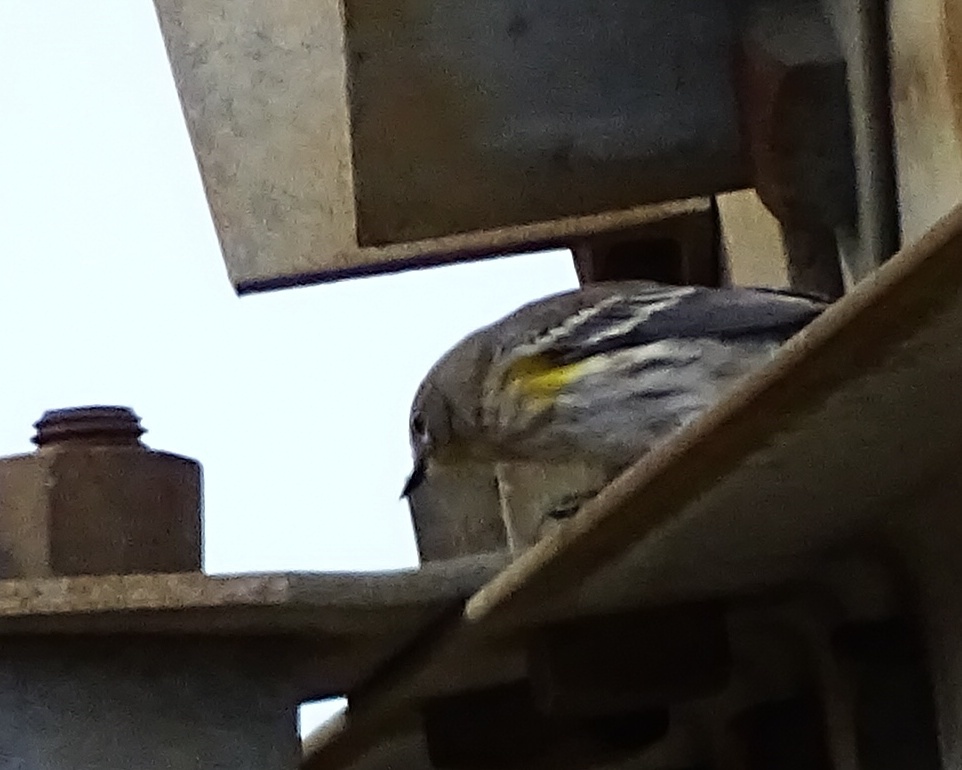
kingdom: Animalia
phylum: Chordata
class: Aves
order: Passeriformes
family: Parulidae
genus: Setophaga
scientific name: Setophaga coronata
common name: Myrtle warbler
